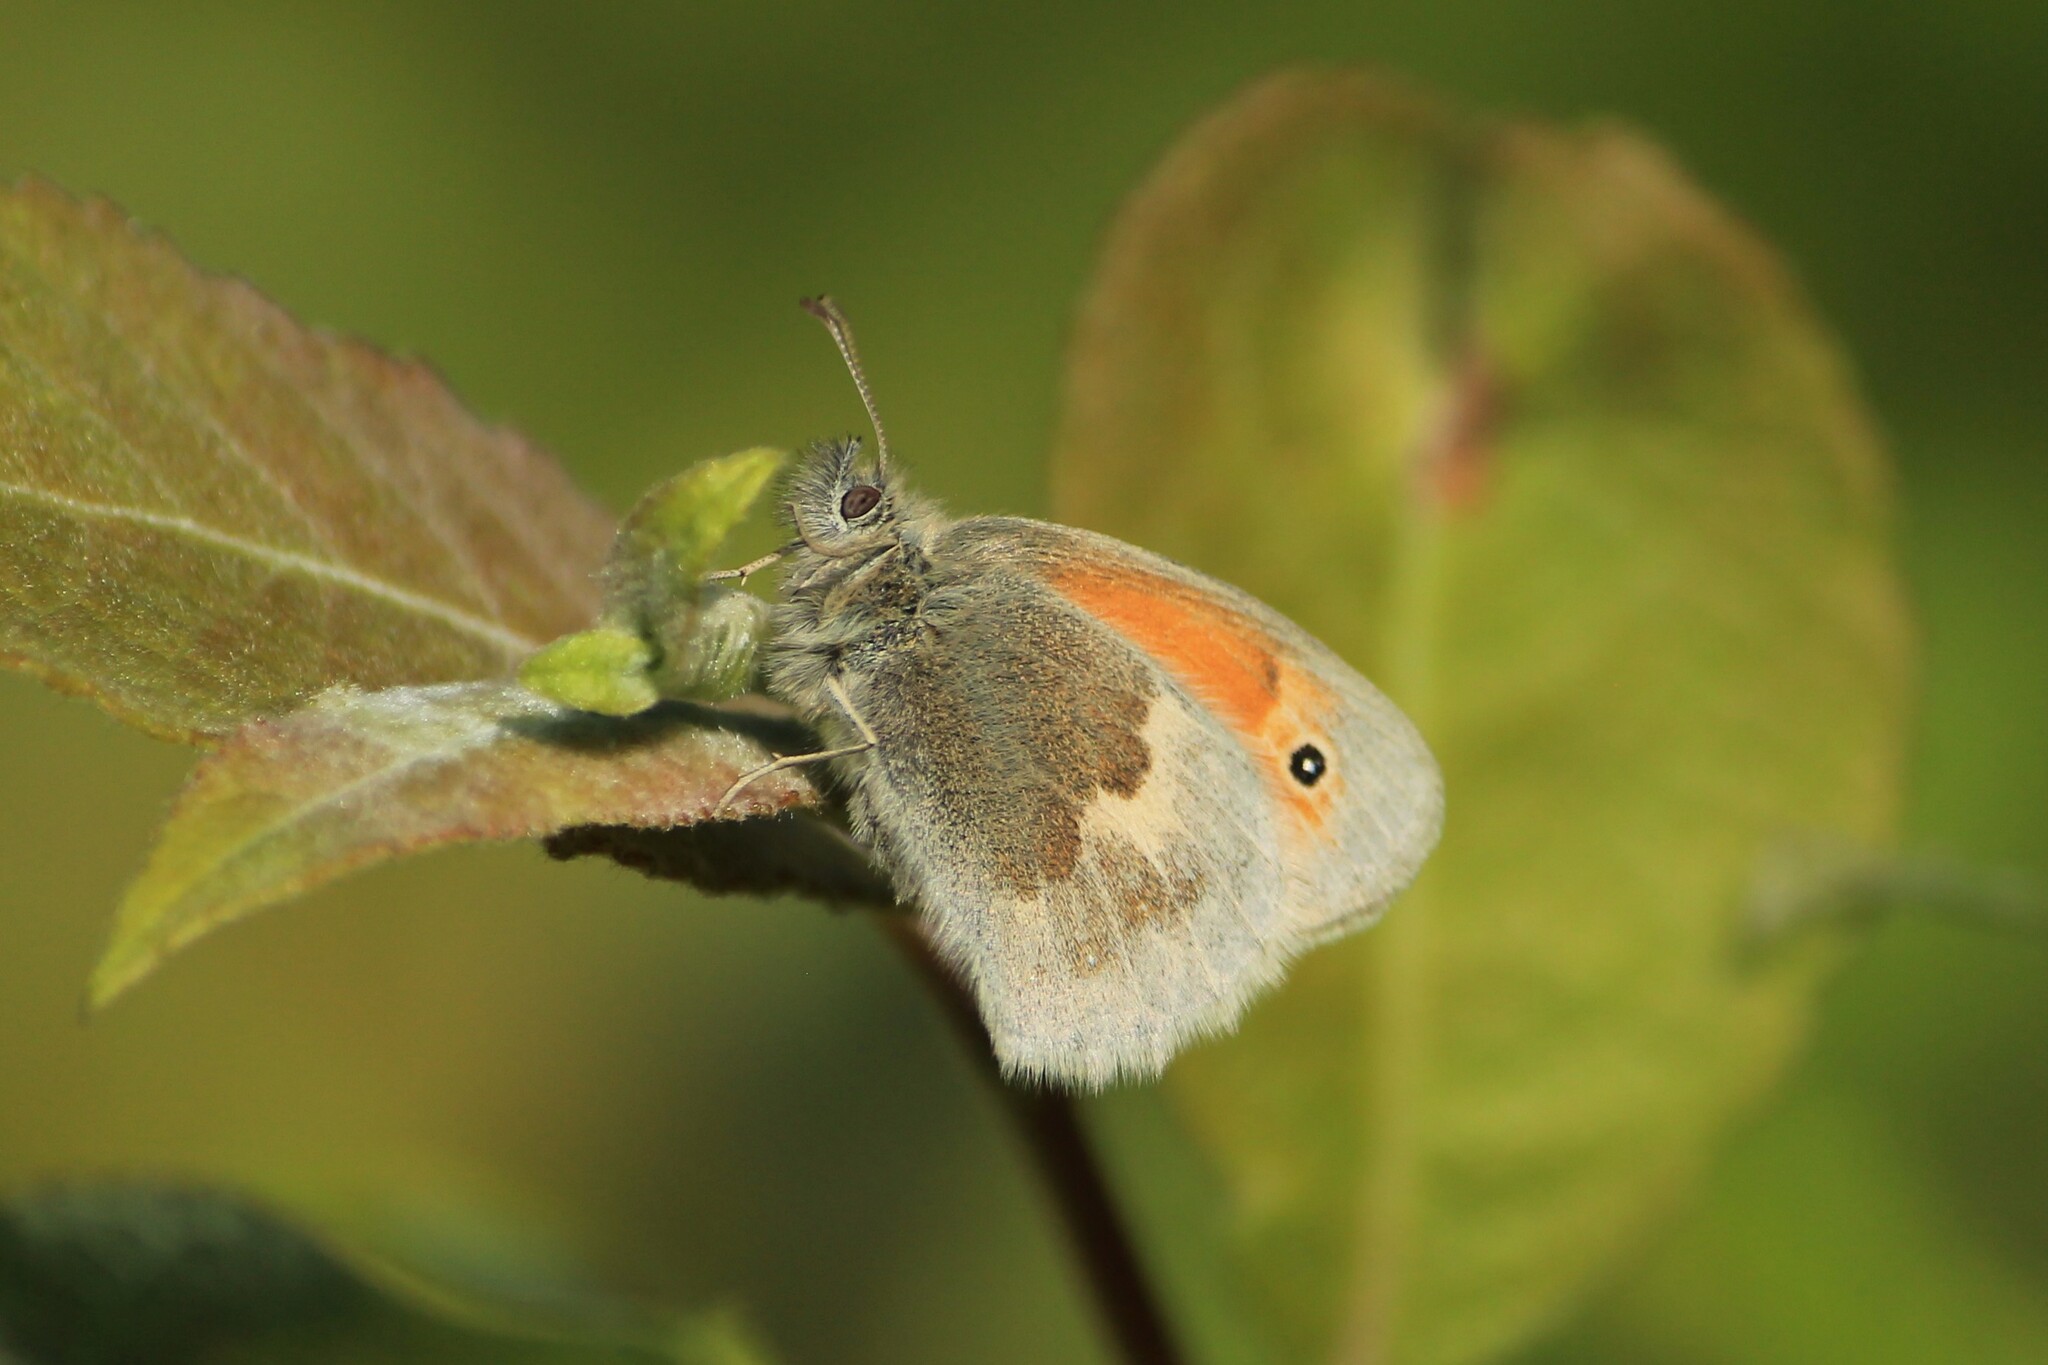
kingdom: Animalia
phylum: Arthropoda
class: Insecta
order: Lepidoptera
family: Nymphalidae
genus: Coenonympha
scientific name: Coenonympha pamphilus
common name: Small heath
